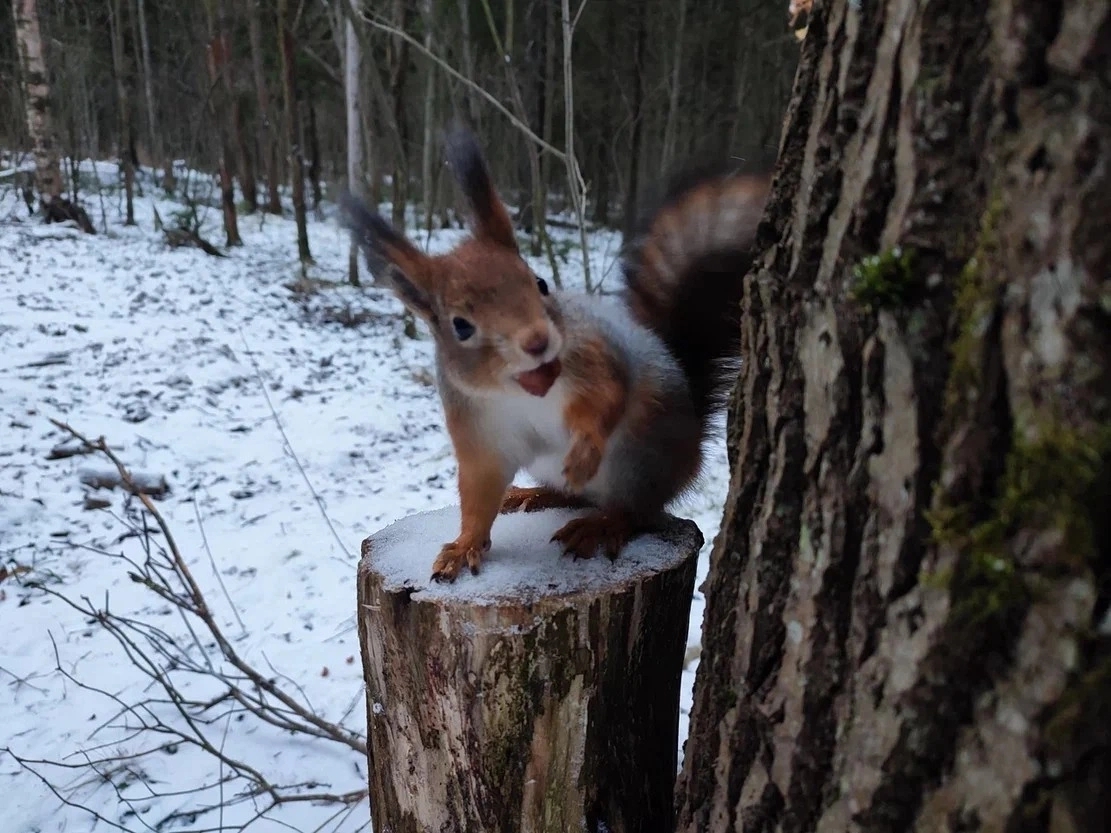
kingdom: Animalia
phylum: Chordata
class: Mammalia
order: Rodentia
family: Sciuridae
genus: Sciurus
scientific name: Sciurus vulgaris
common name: Eurasian red squirrel
